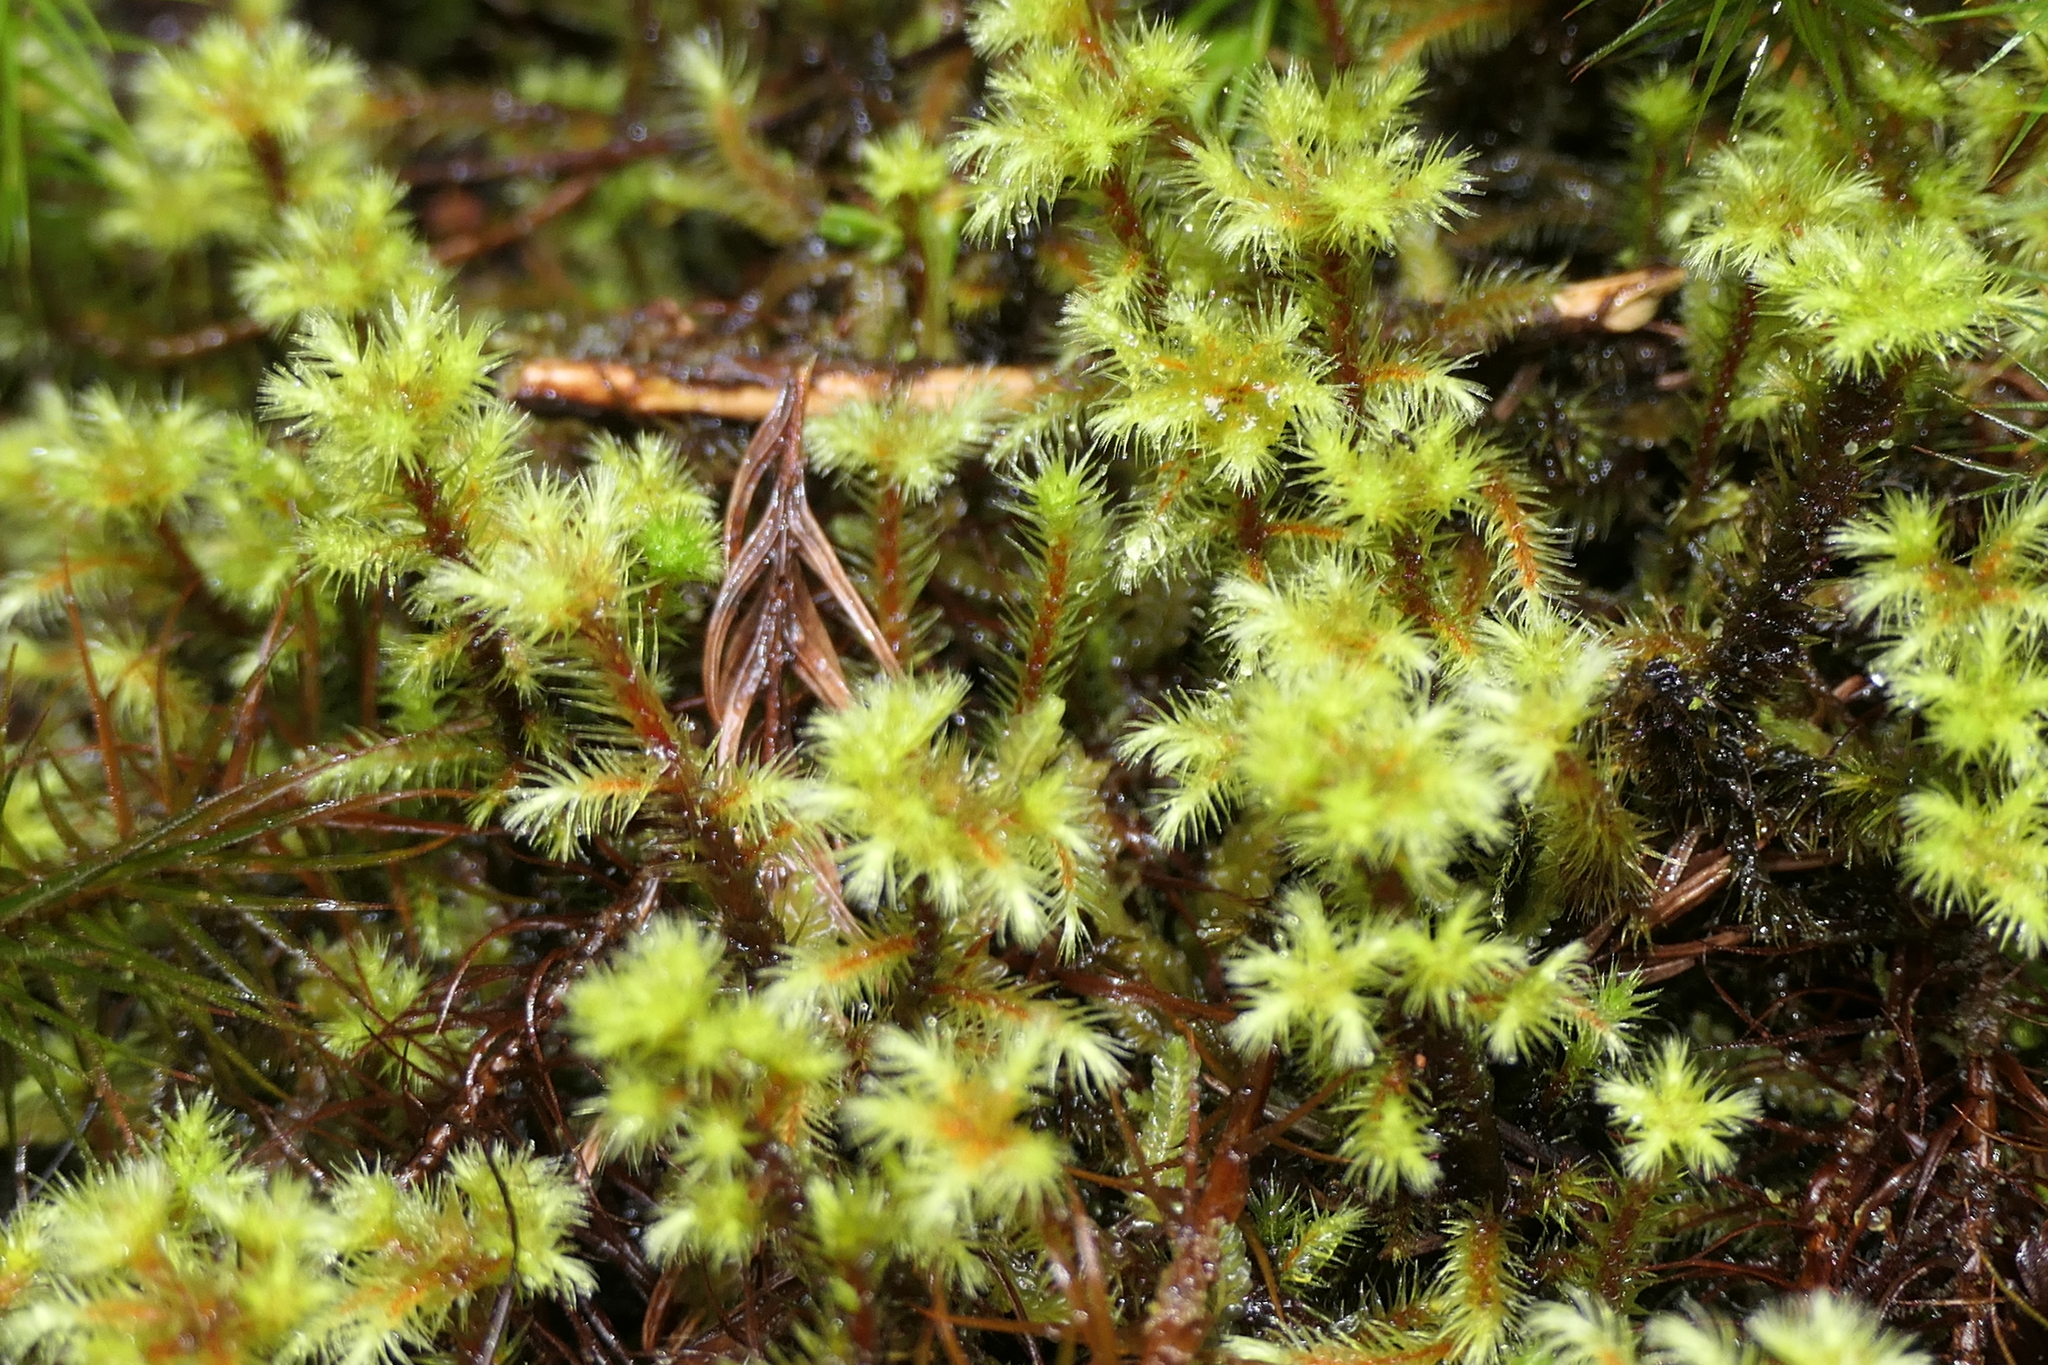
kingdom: Plantae
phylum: Bryophyta
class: Bryopsida
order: Bartramiales
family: Bartramiaceae
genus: Breutelia
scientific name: Breutelia azorica
